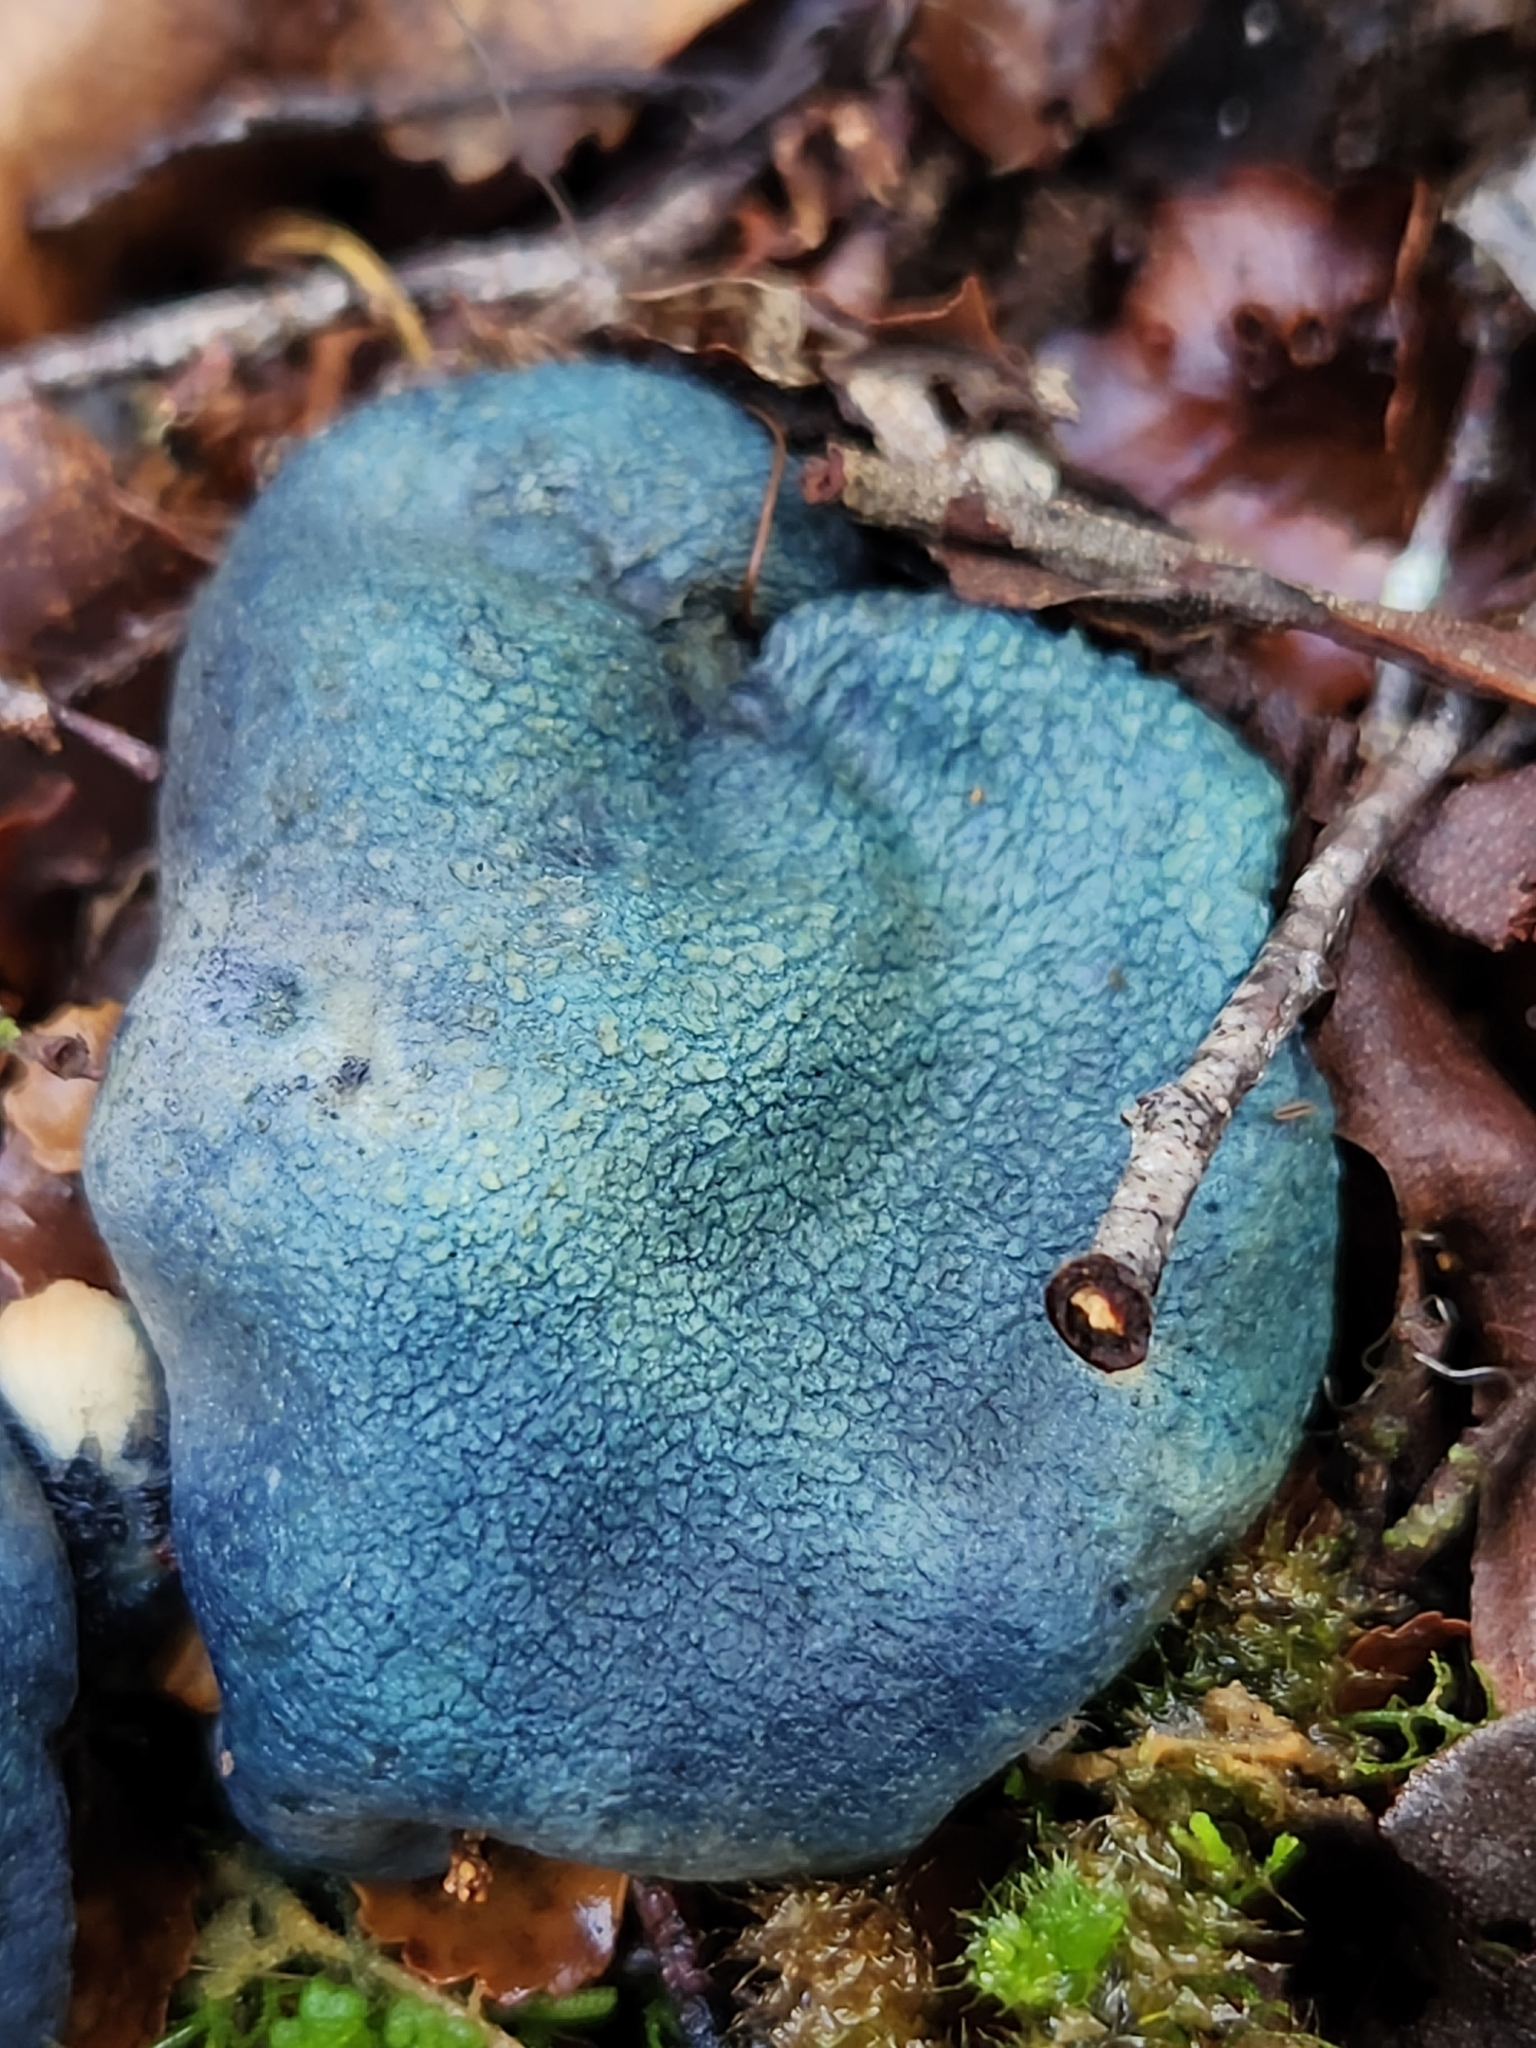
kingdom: Fungi
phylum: Basidiomycota
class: Agaricomycetes
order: Boletales
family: Boletaceae
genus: Leccinum
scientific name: Leccinum pachyderme
